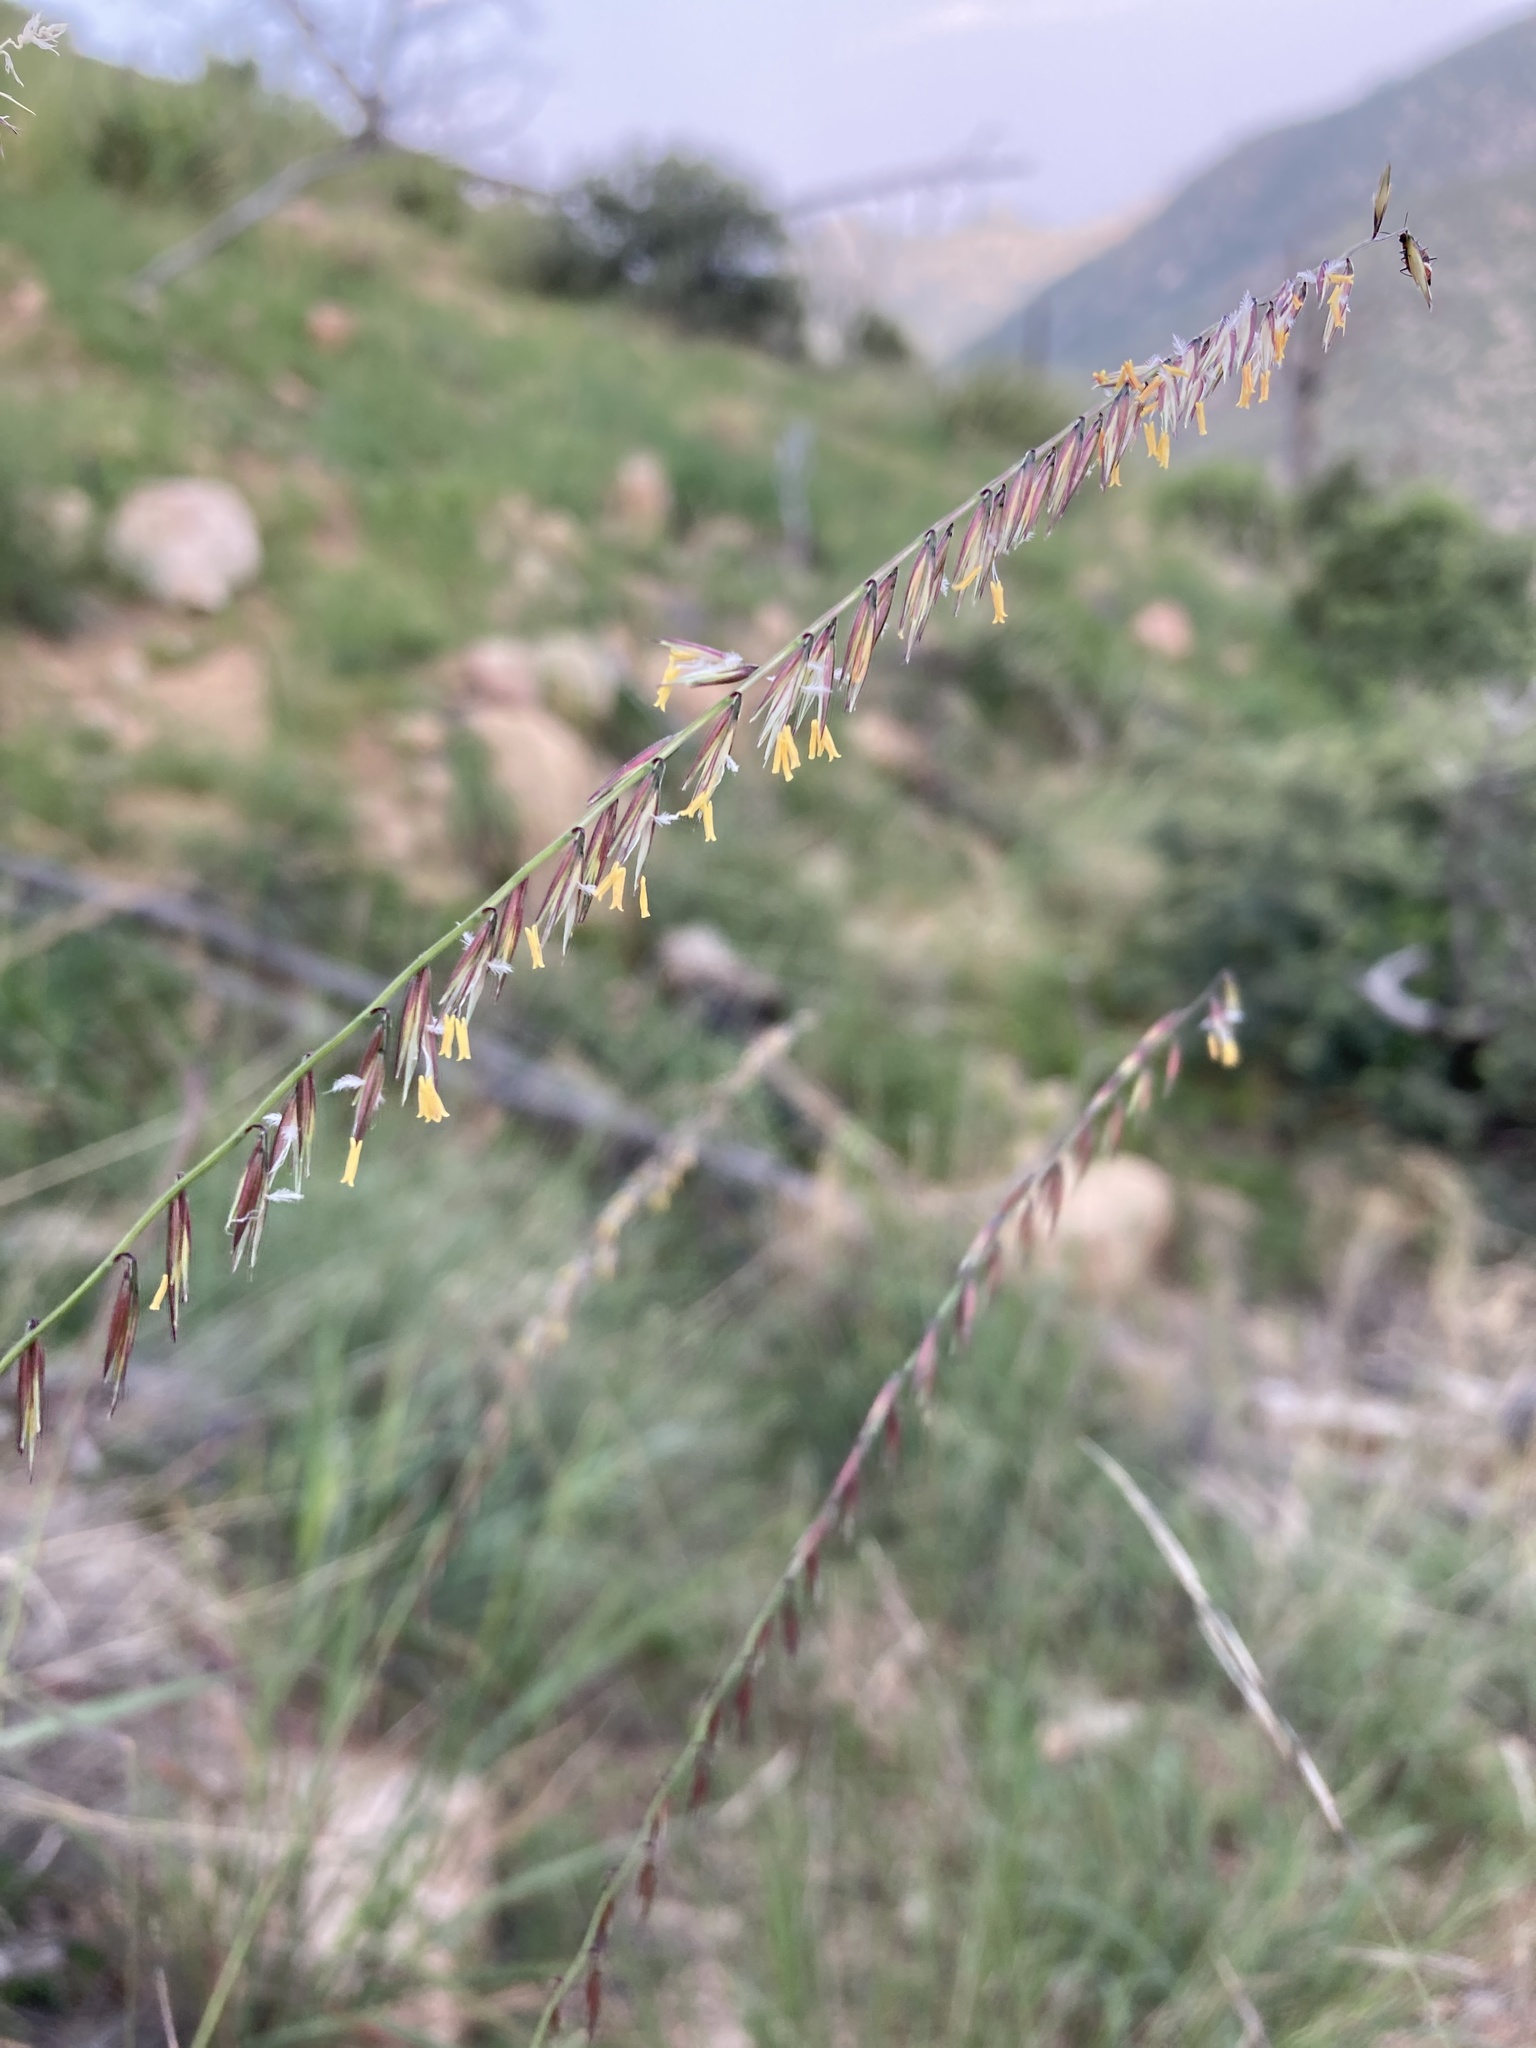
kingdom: Plantae
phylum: Tracheophyta
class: Liliopsida
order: Poales
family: Poaceae
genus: Bouteloua
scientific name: Bouteloua curtipendula
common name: Side-oats grama
